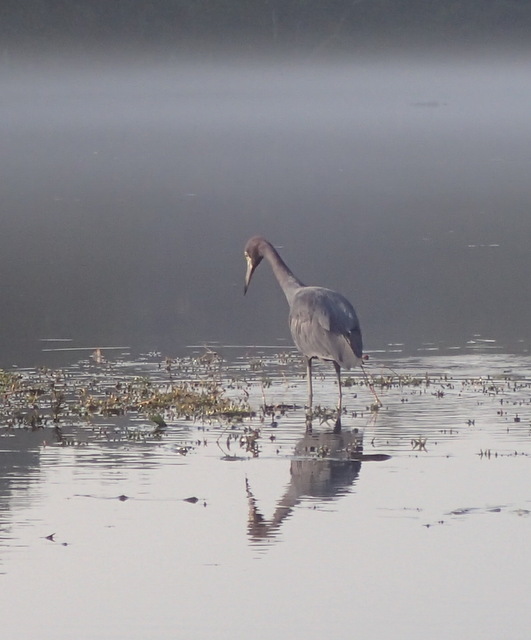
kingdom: Animalia
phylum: Chordata
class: Aves
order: Pelecaniformes
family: Ardeidae
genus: Egretta
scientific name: Egretta caerulea
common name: Little blue heron
